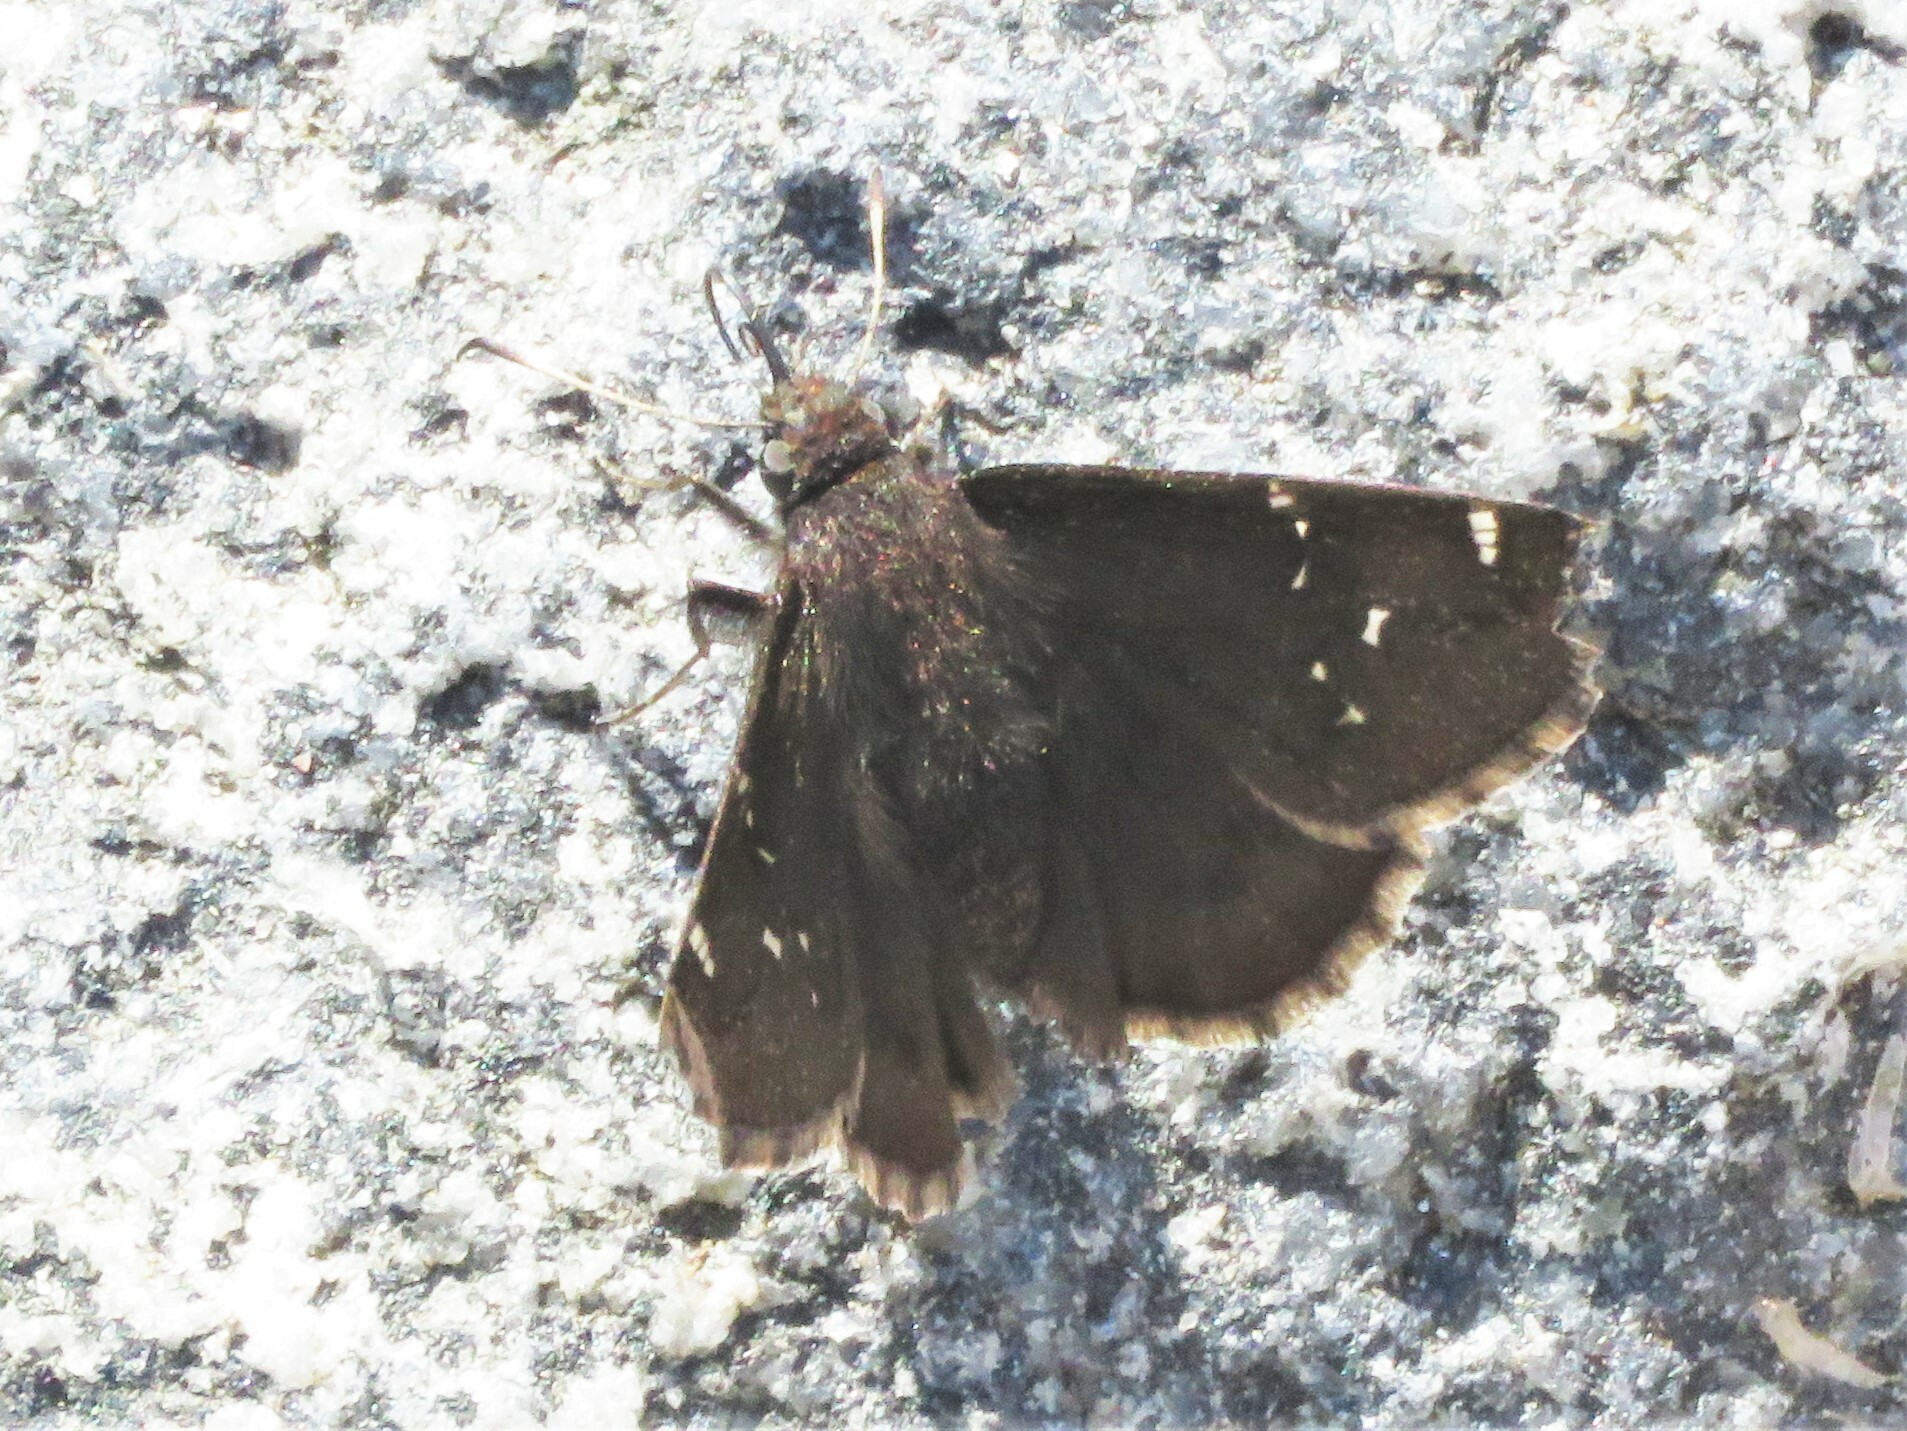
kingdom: Animalia
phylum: Arthropoda
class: Insecta
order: Lepidoptera
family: Hesperiidae
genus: Thorybes
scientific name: Thorybes pylades
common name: Northern cloudywing
